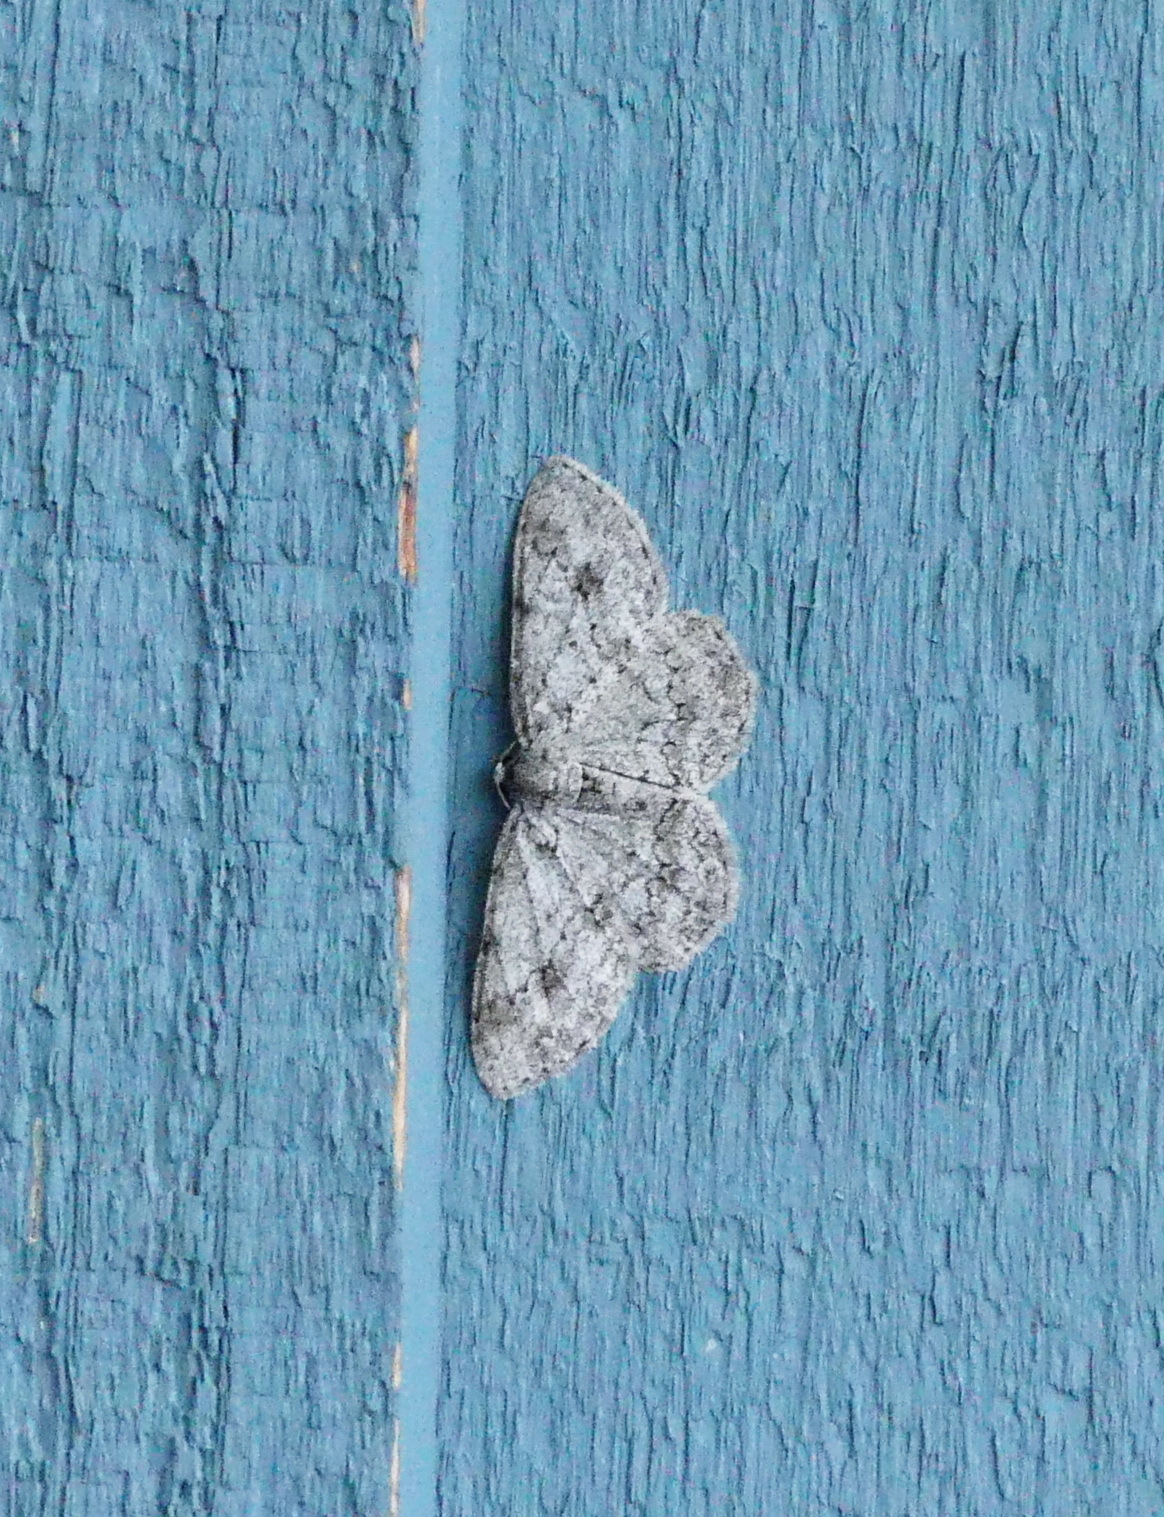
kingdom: Animalia
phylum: Arthropoda
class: Insecta
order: Lepidoptera
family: Geometridae
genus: Ectropis
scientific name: Ectropis crepuscularia
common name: Engrailed
